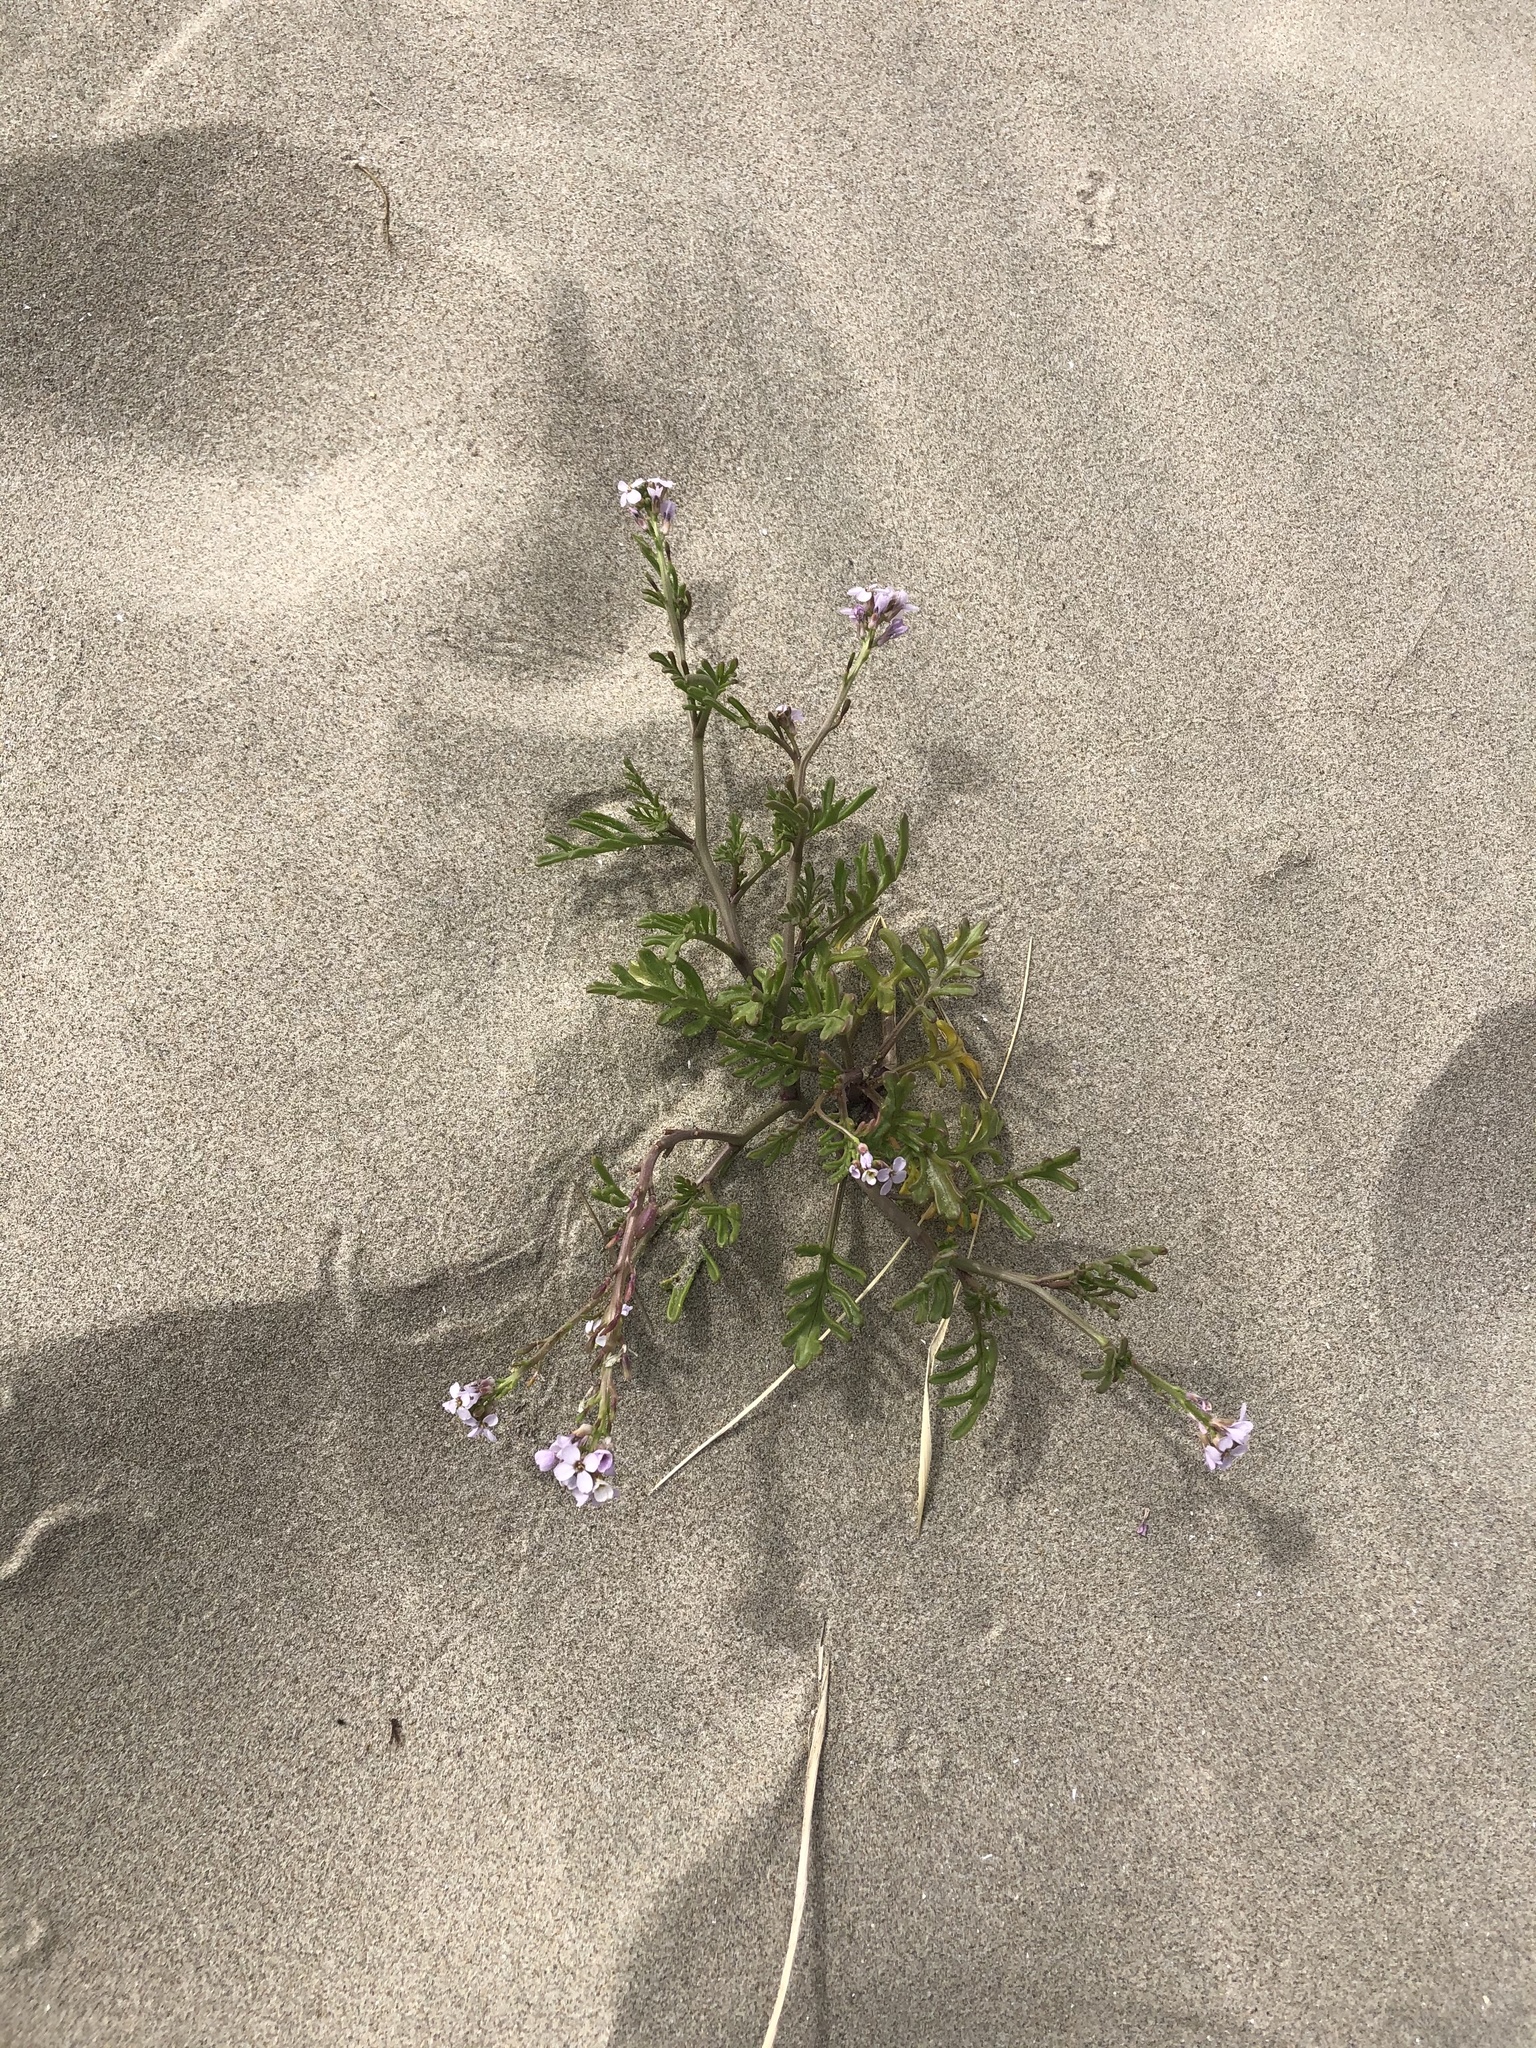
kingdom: Plantae
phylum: Tracheophyta
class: Magnoliopsida
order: Brassicales
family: Brassicaceae
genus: Cakile
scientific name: Cakile maritima
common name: Sea rocket
